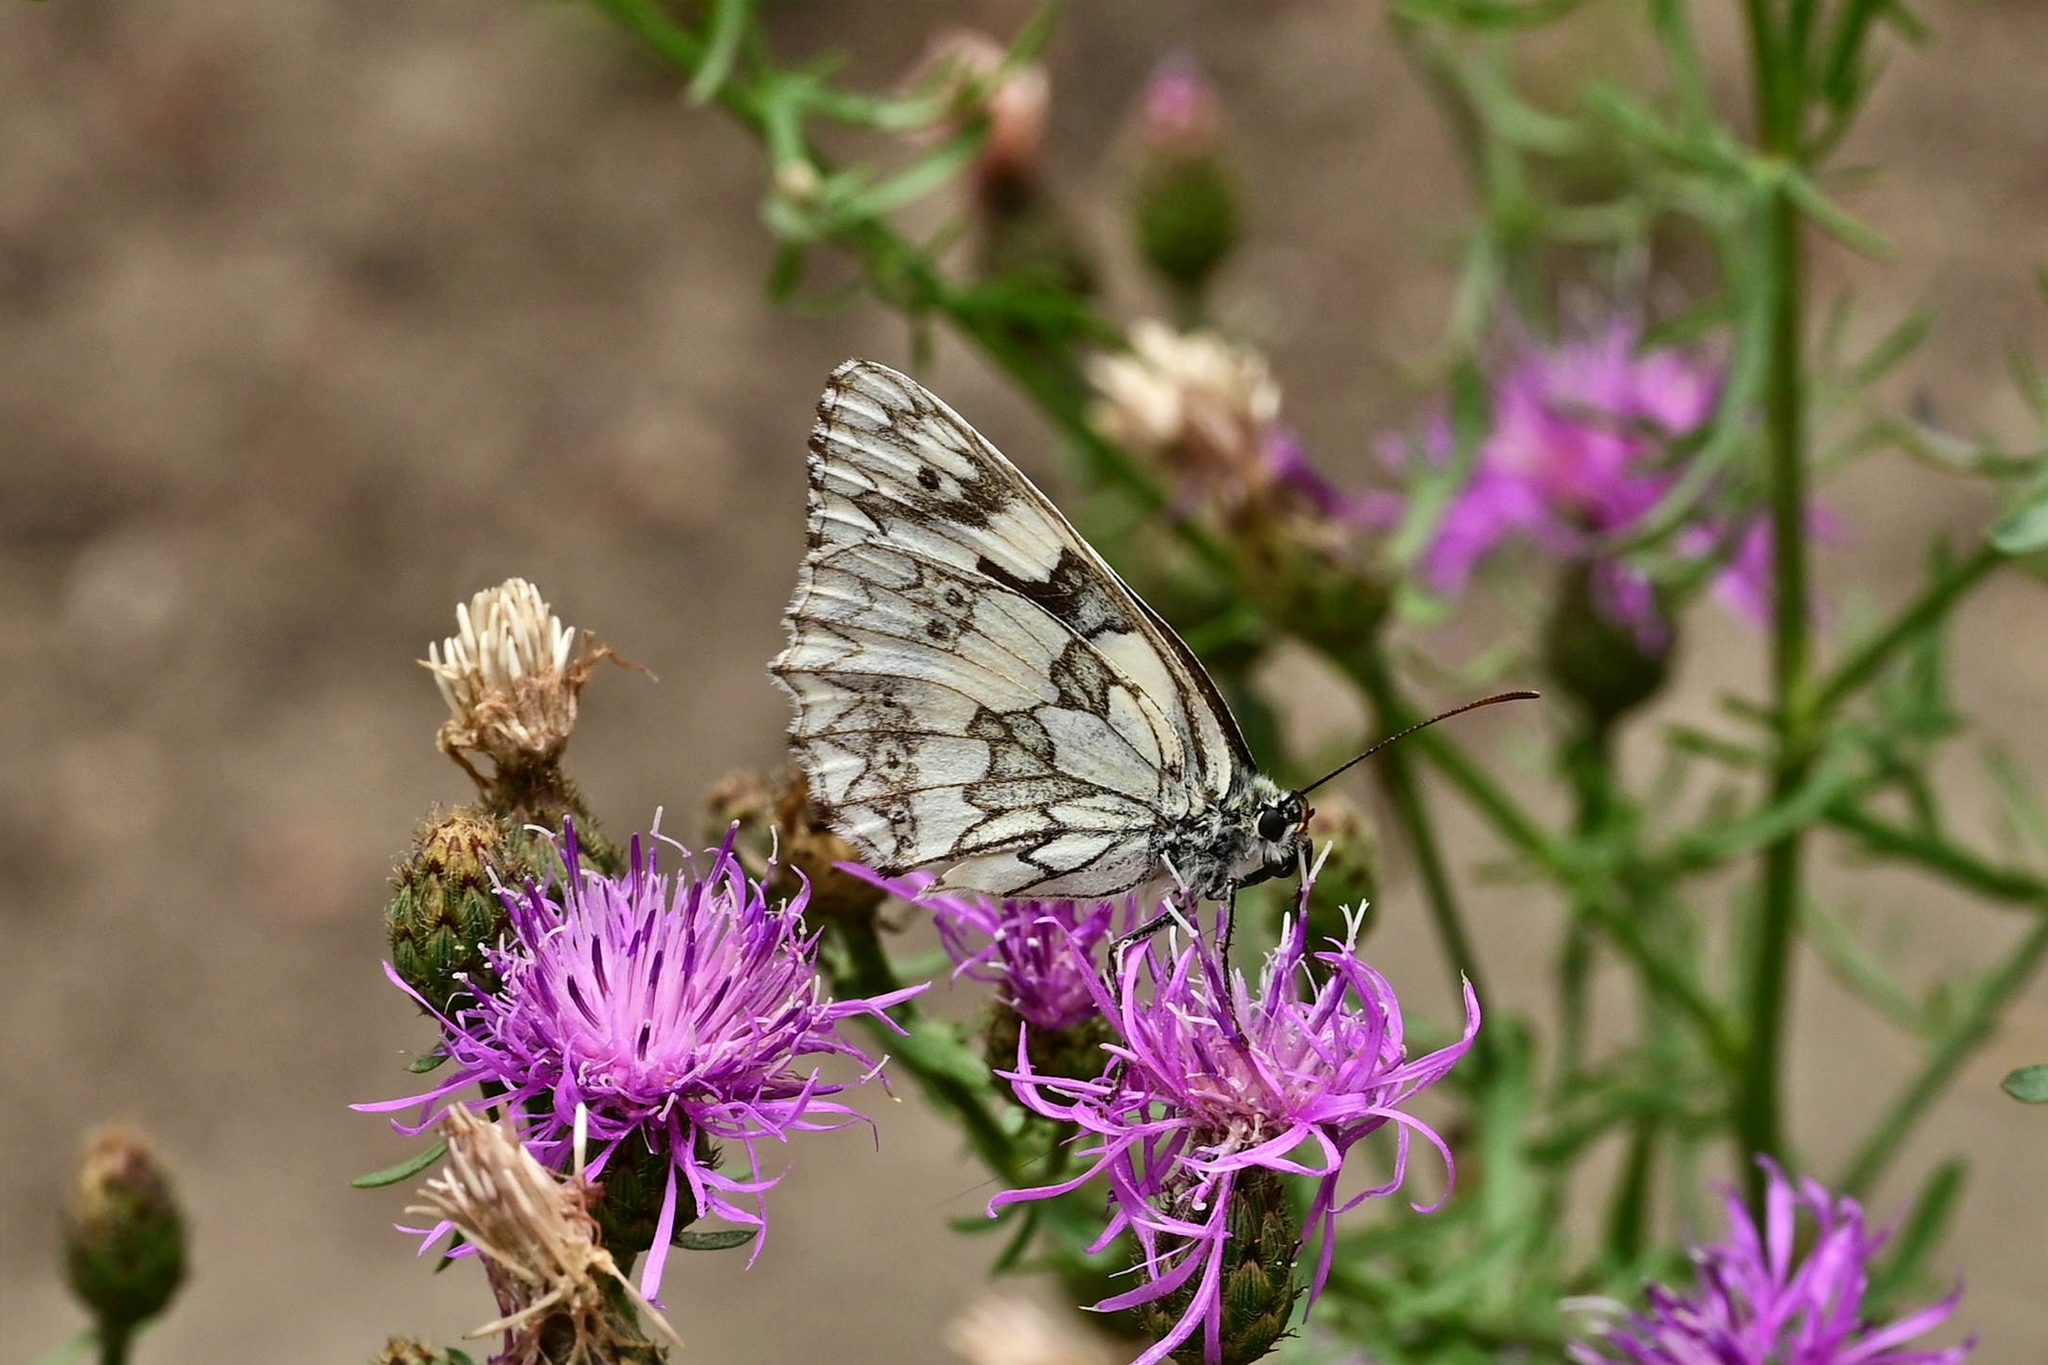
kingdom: Animalia
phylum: Arthropoda
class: Insecta
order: Lepidoptera
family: Nymphalidae
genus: Melanargia
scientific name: Melanargia galathea
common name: Marbled white
